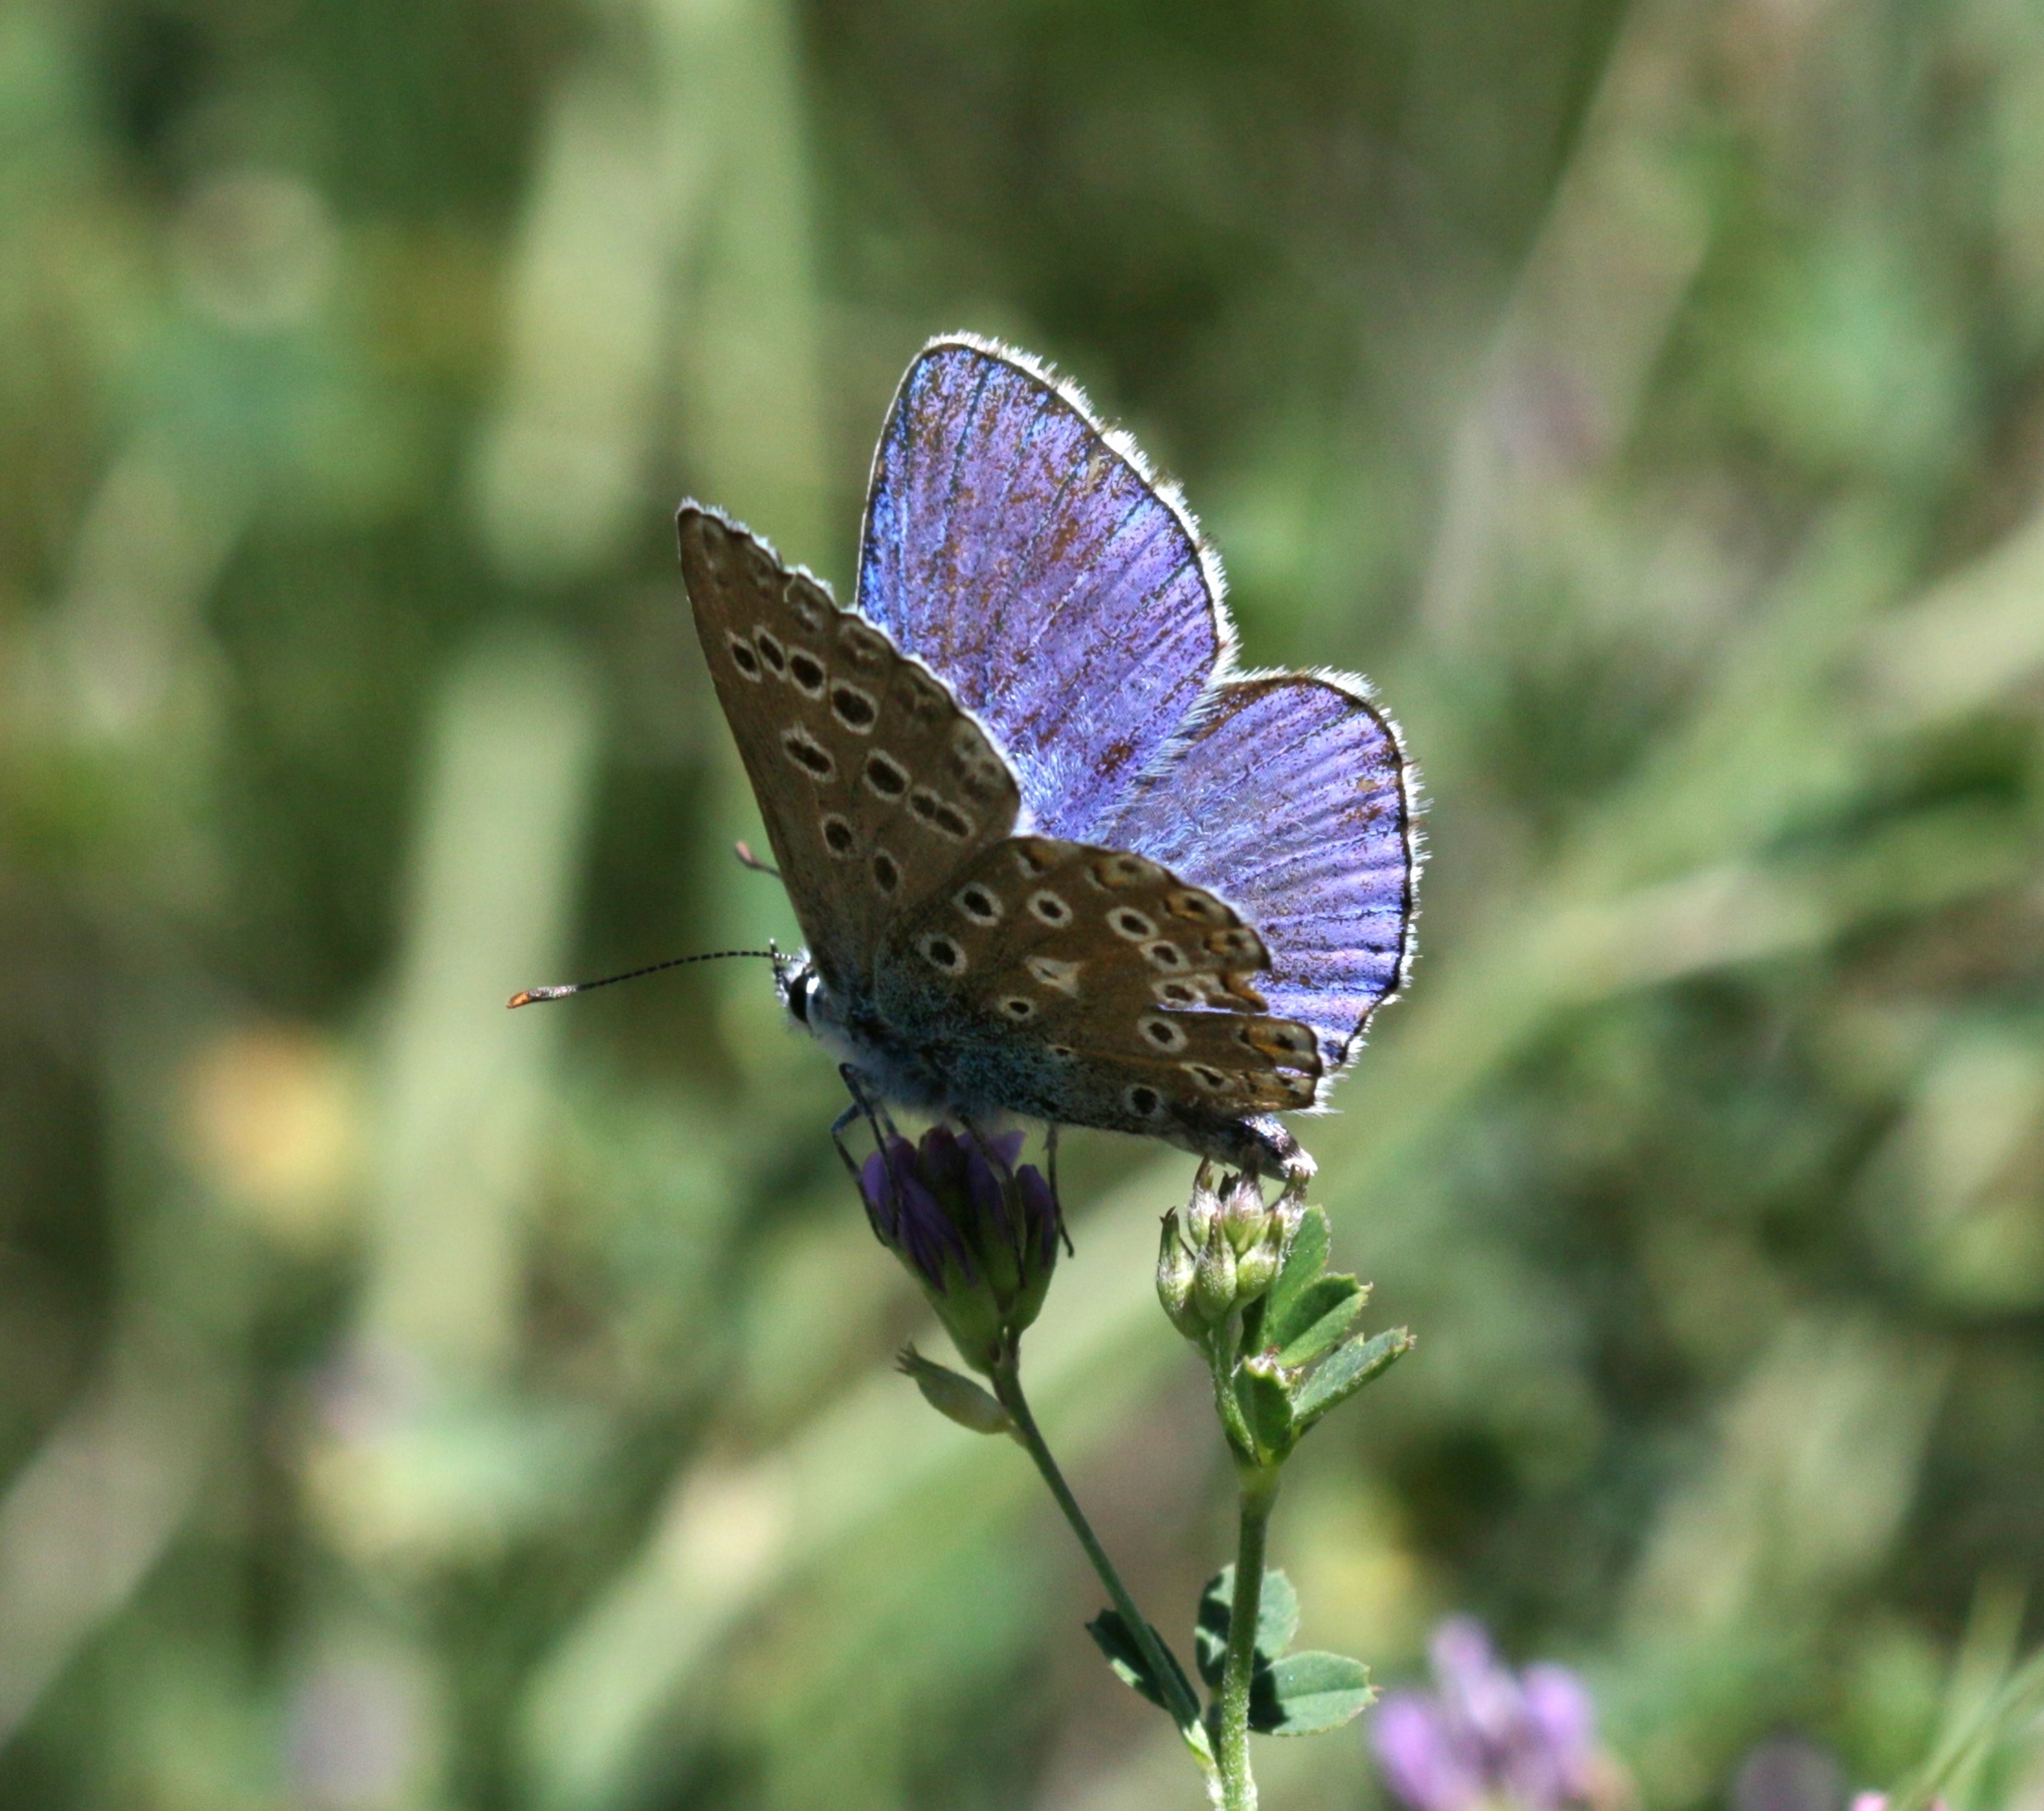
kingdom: Animalia
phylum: Arthropoda
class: Insecta
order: Lepidoptera
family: Lycaenidae
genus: Lysandra
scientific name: Lysandra bellargus
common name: Adonis blue
